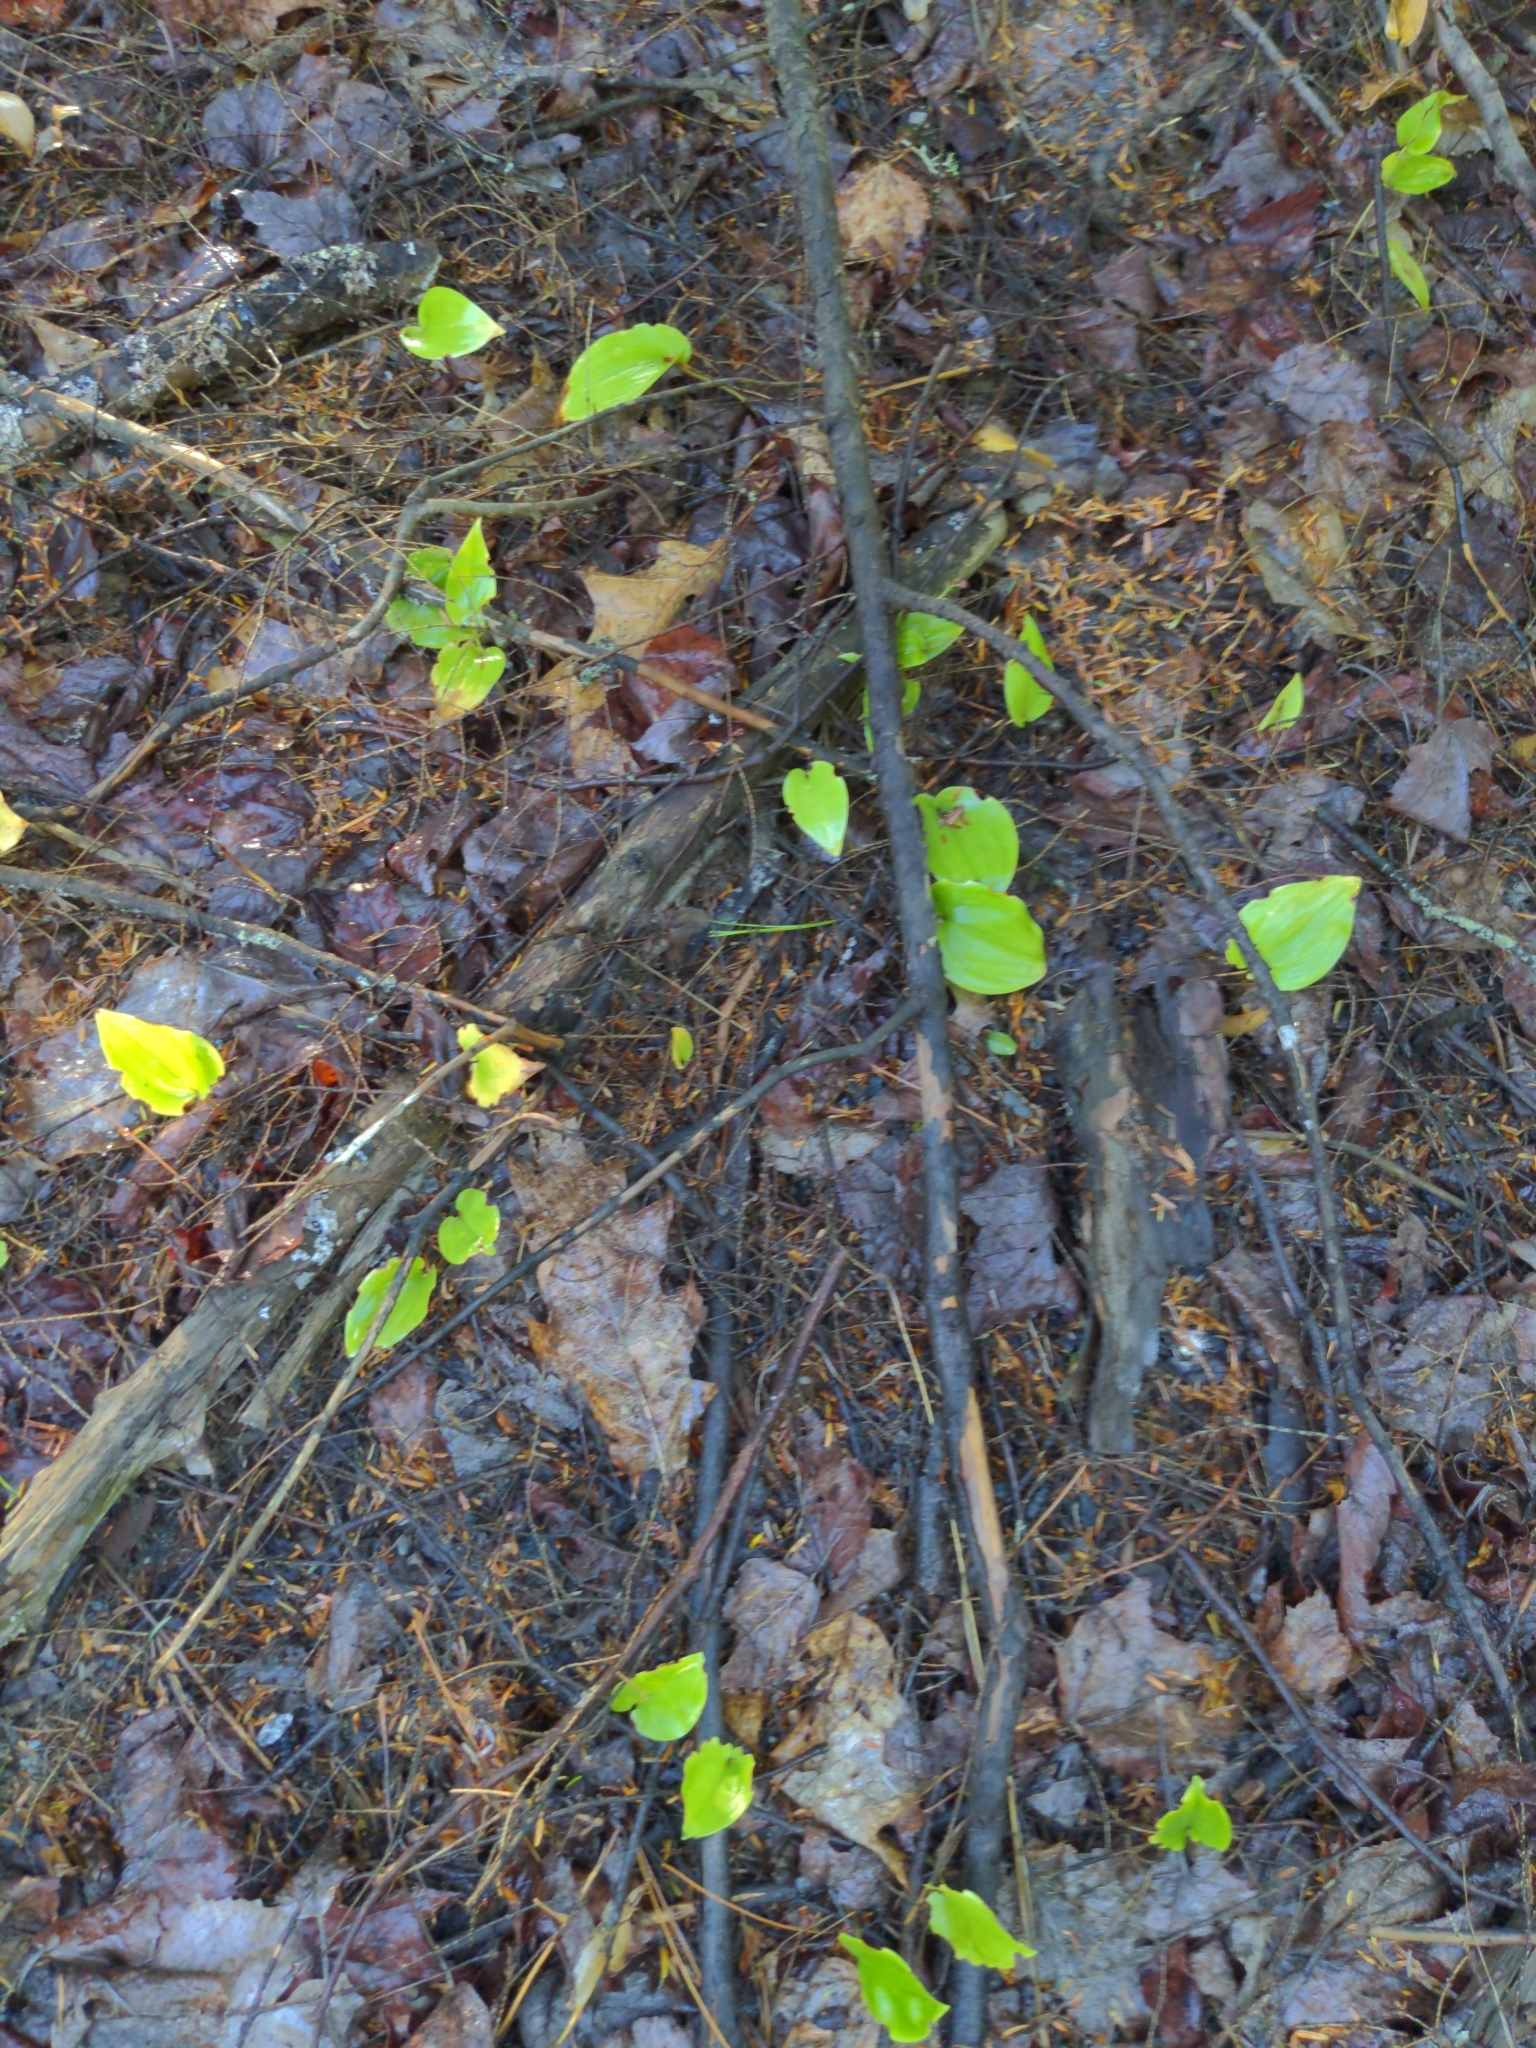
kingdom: Plantae
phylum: Tracheophyta
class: Liliopsida
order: Asparagales
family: Asparagaceae
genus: Maianthemum
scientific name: Maianthemum canadense
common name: False lily-of-the-valley
